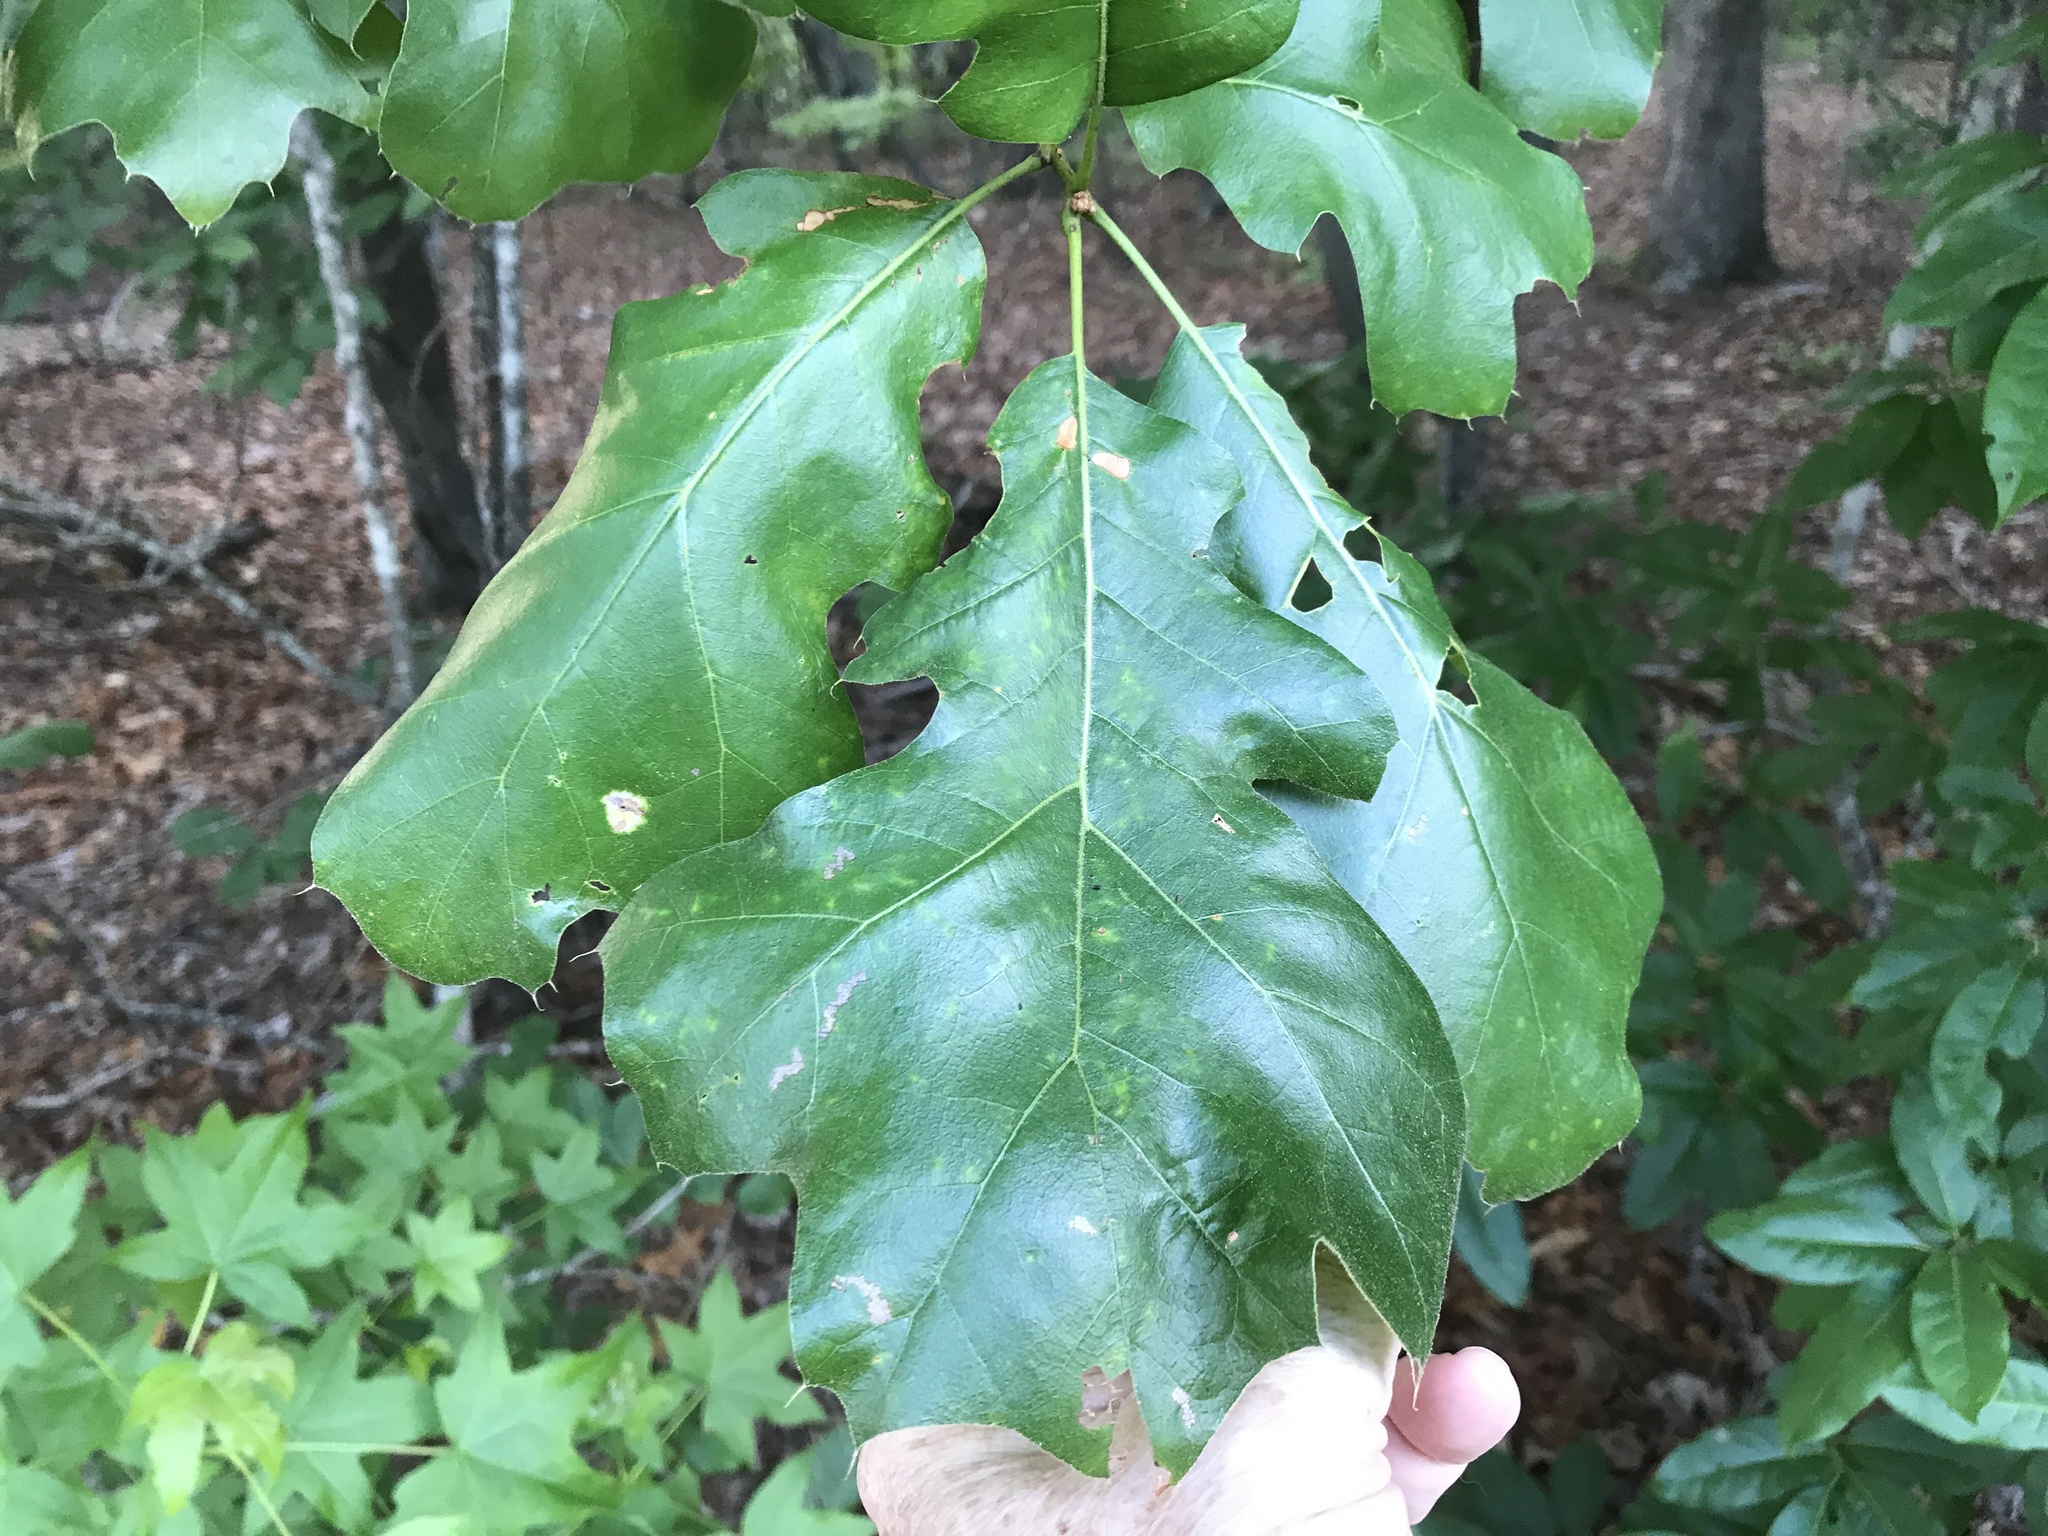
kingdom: Plantae
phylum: Tracheophyta
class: Magnoliopsida
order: Fagales
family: Fagaceae
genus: Quercus
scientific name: Quercus velutina
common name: Black oak
